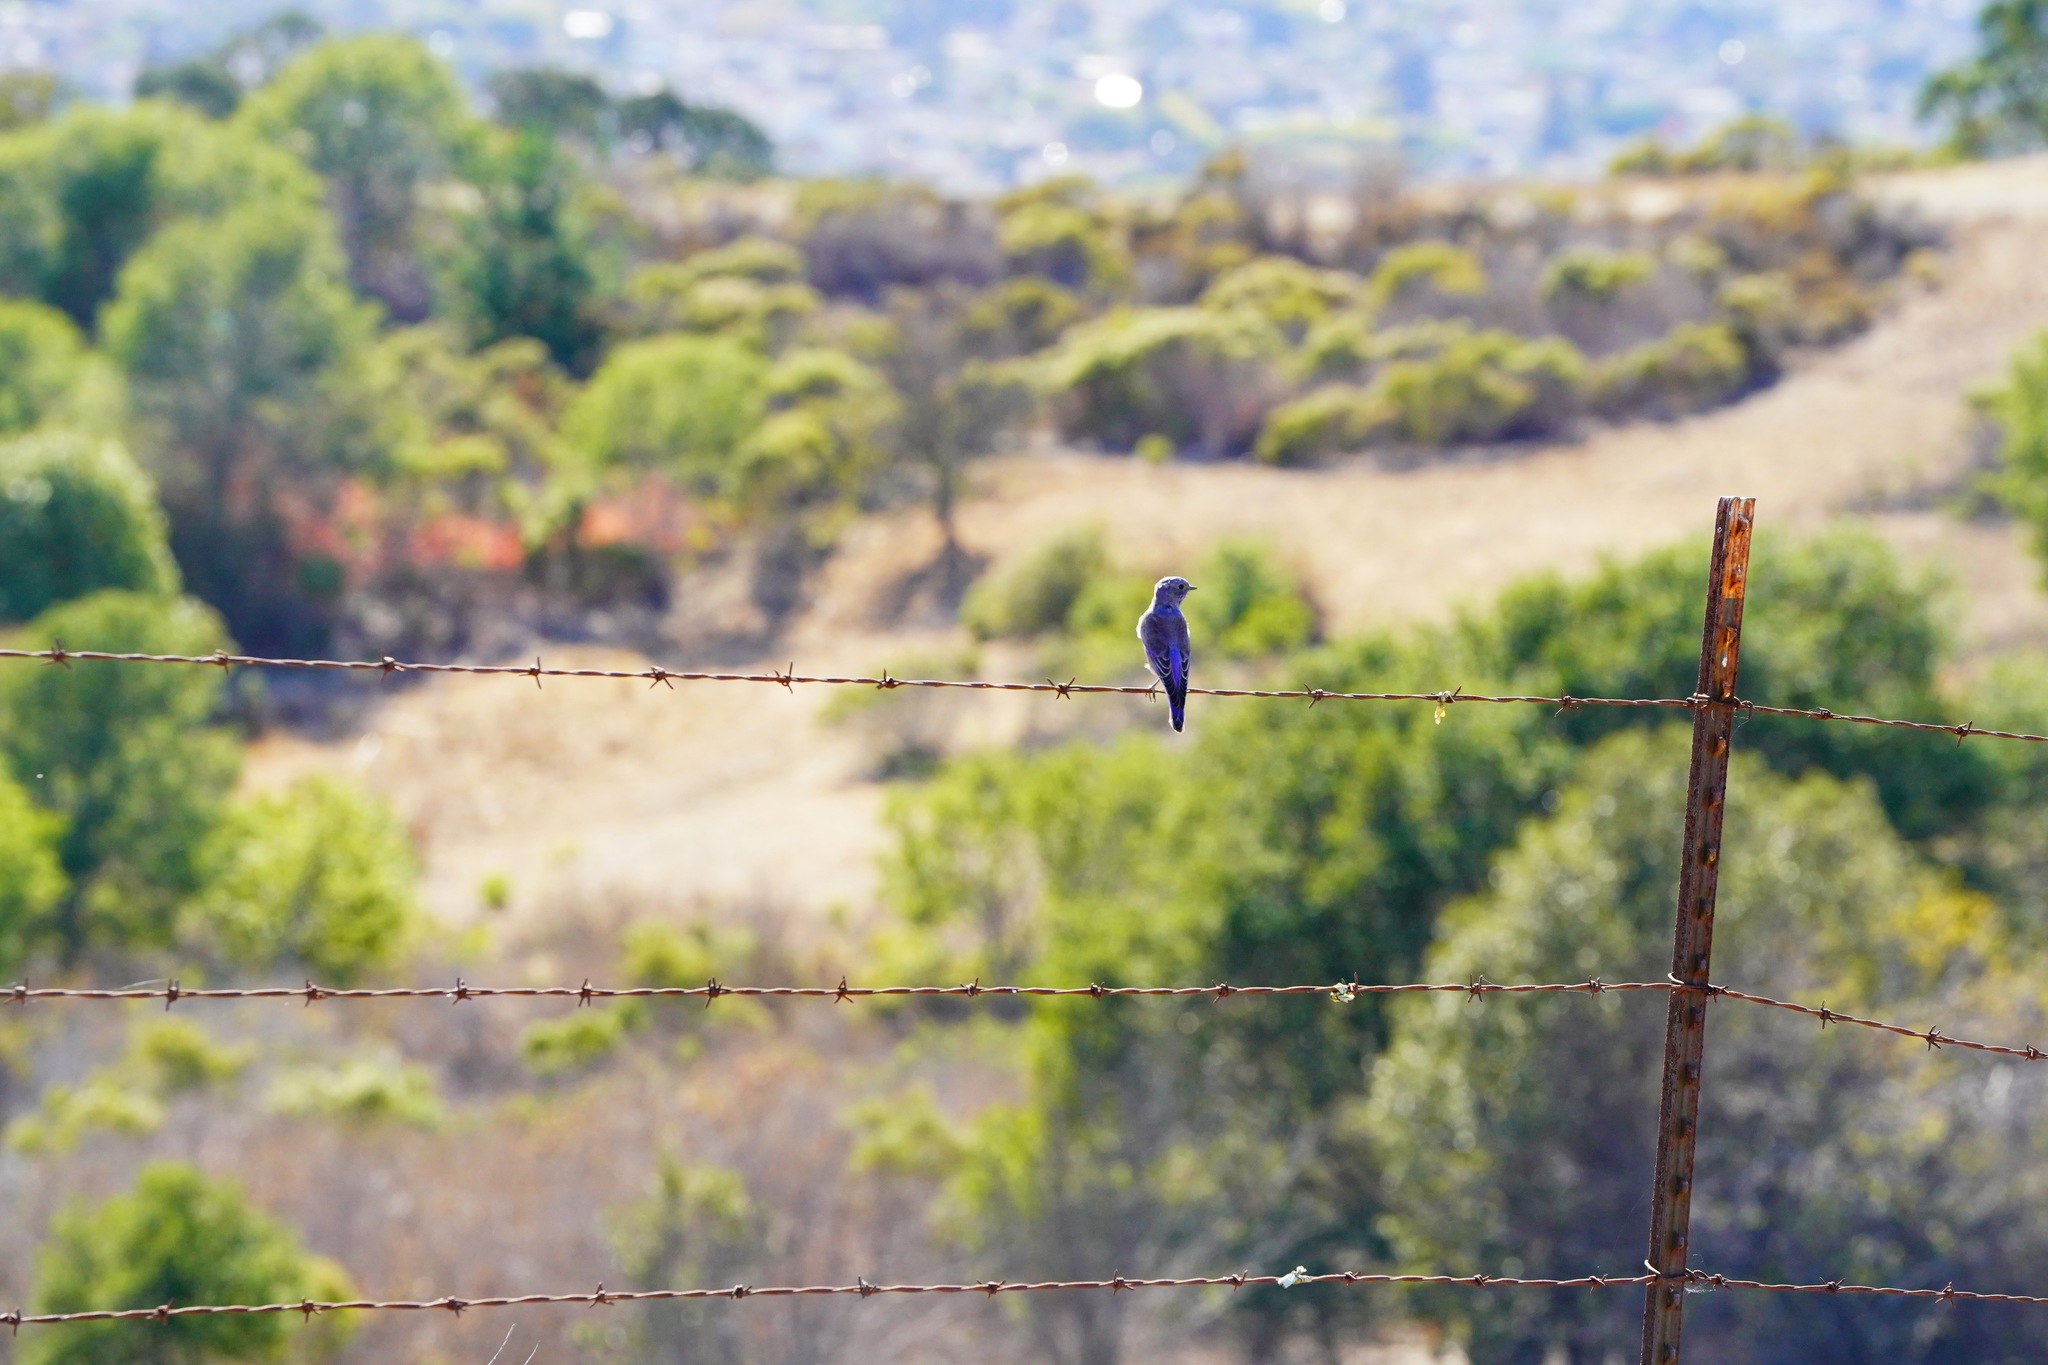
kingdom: Animalia
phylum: Chordata
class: Aves
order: Passeriformes
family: Turdidae
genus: Sialia
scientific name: Sialia mexicana
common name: Western bluebird
